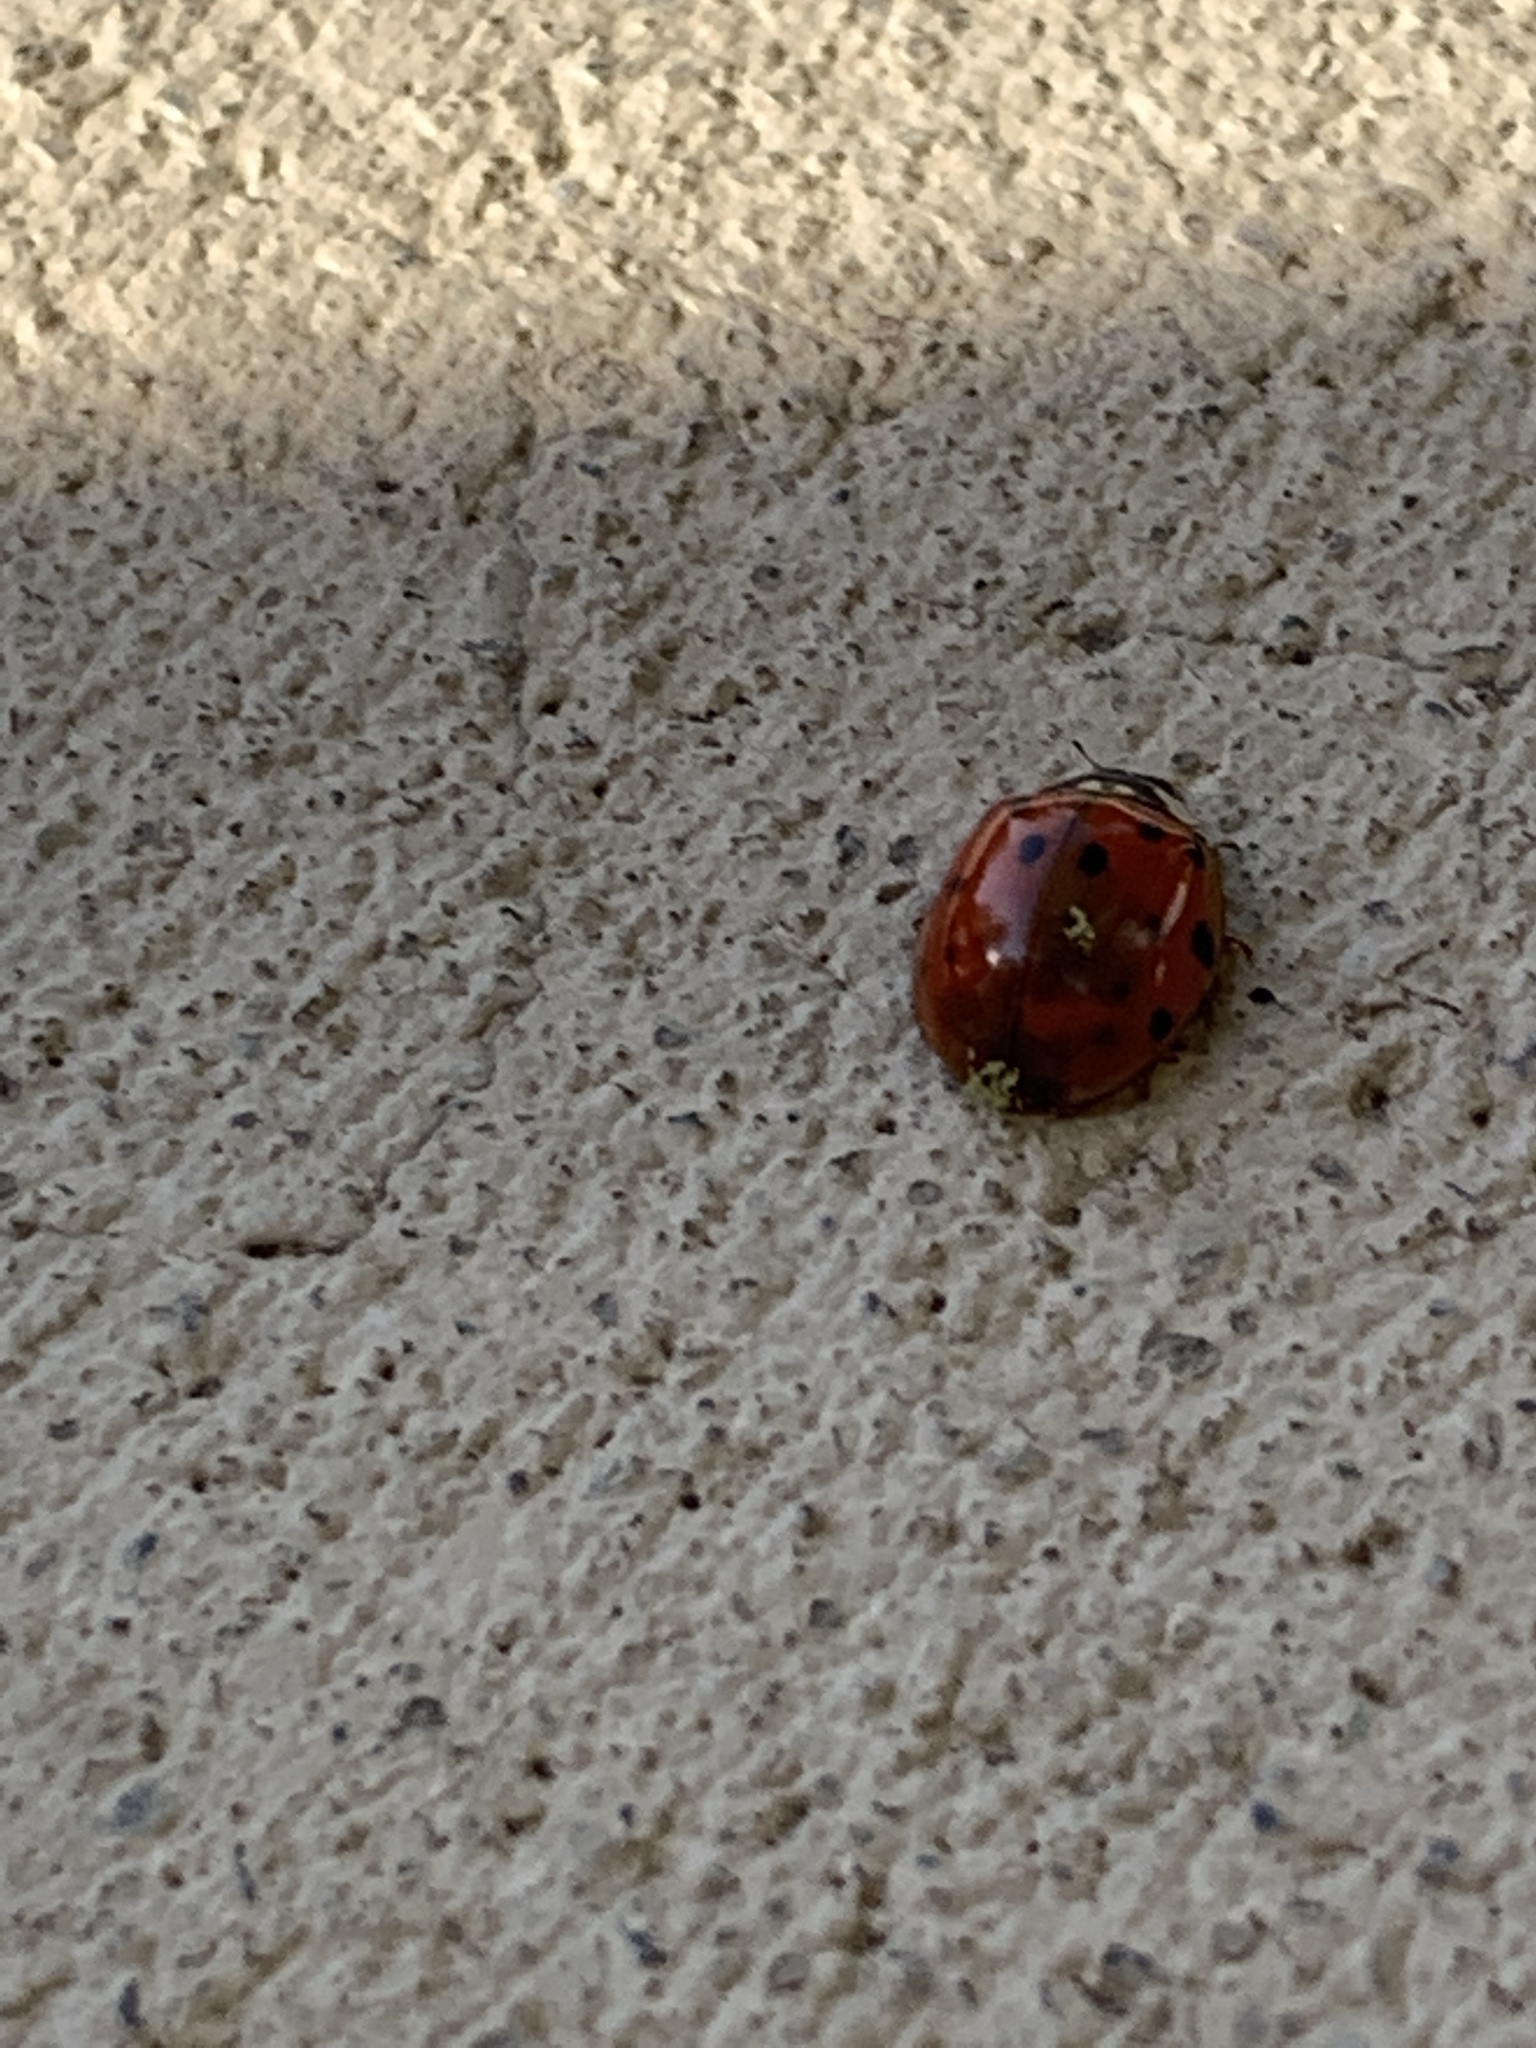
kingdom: Animalia
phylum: Arthropoda
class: Insecta
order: Coleoptera
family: Coccinellidae
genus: Harmonia
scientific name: Harmonia axyridis
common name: Harlequin ladybird
